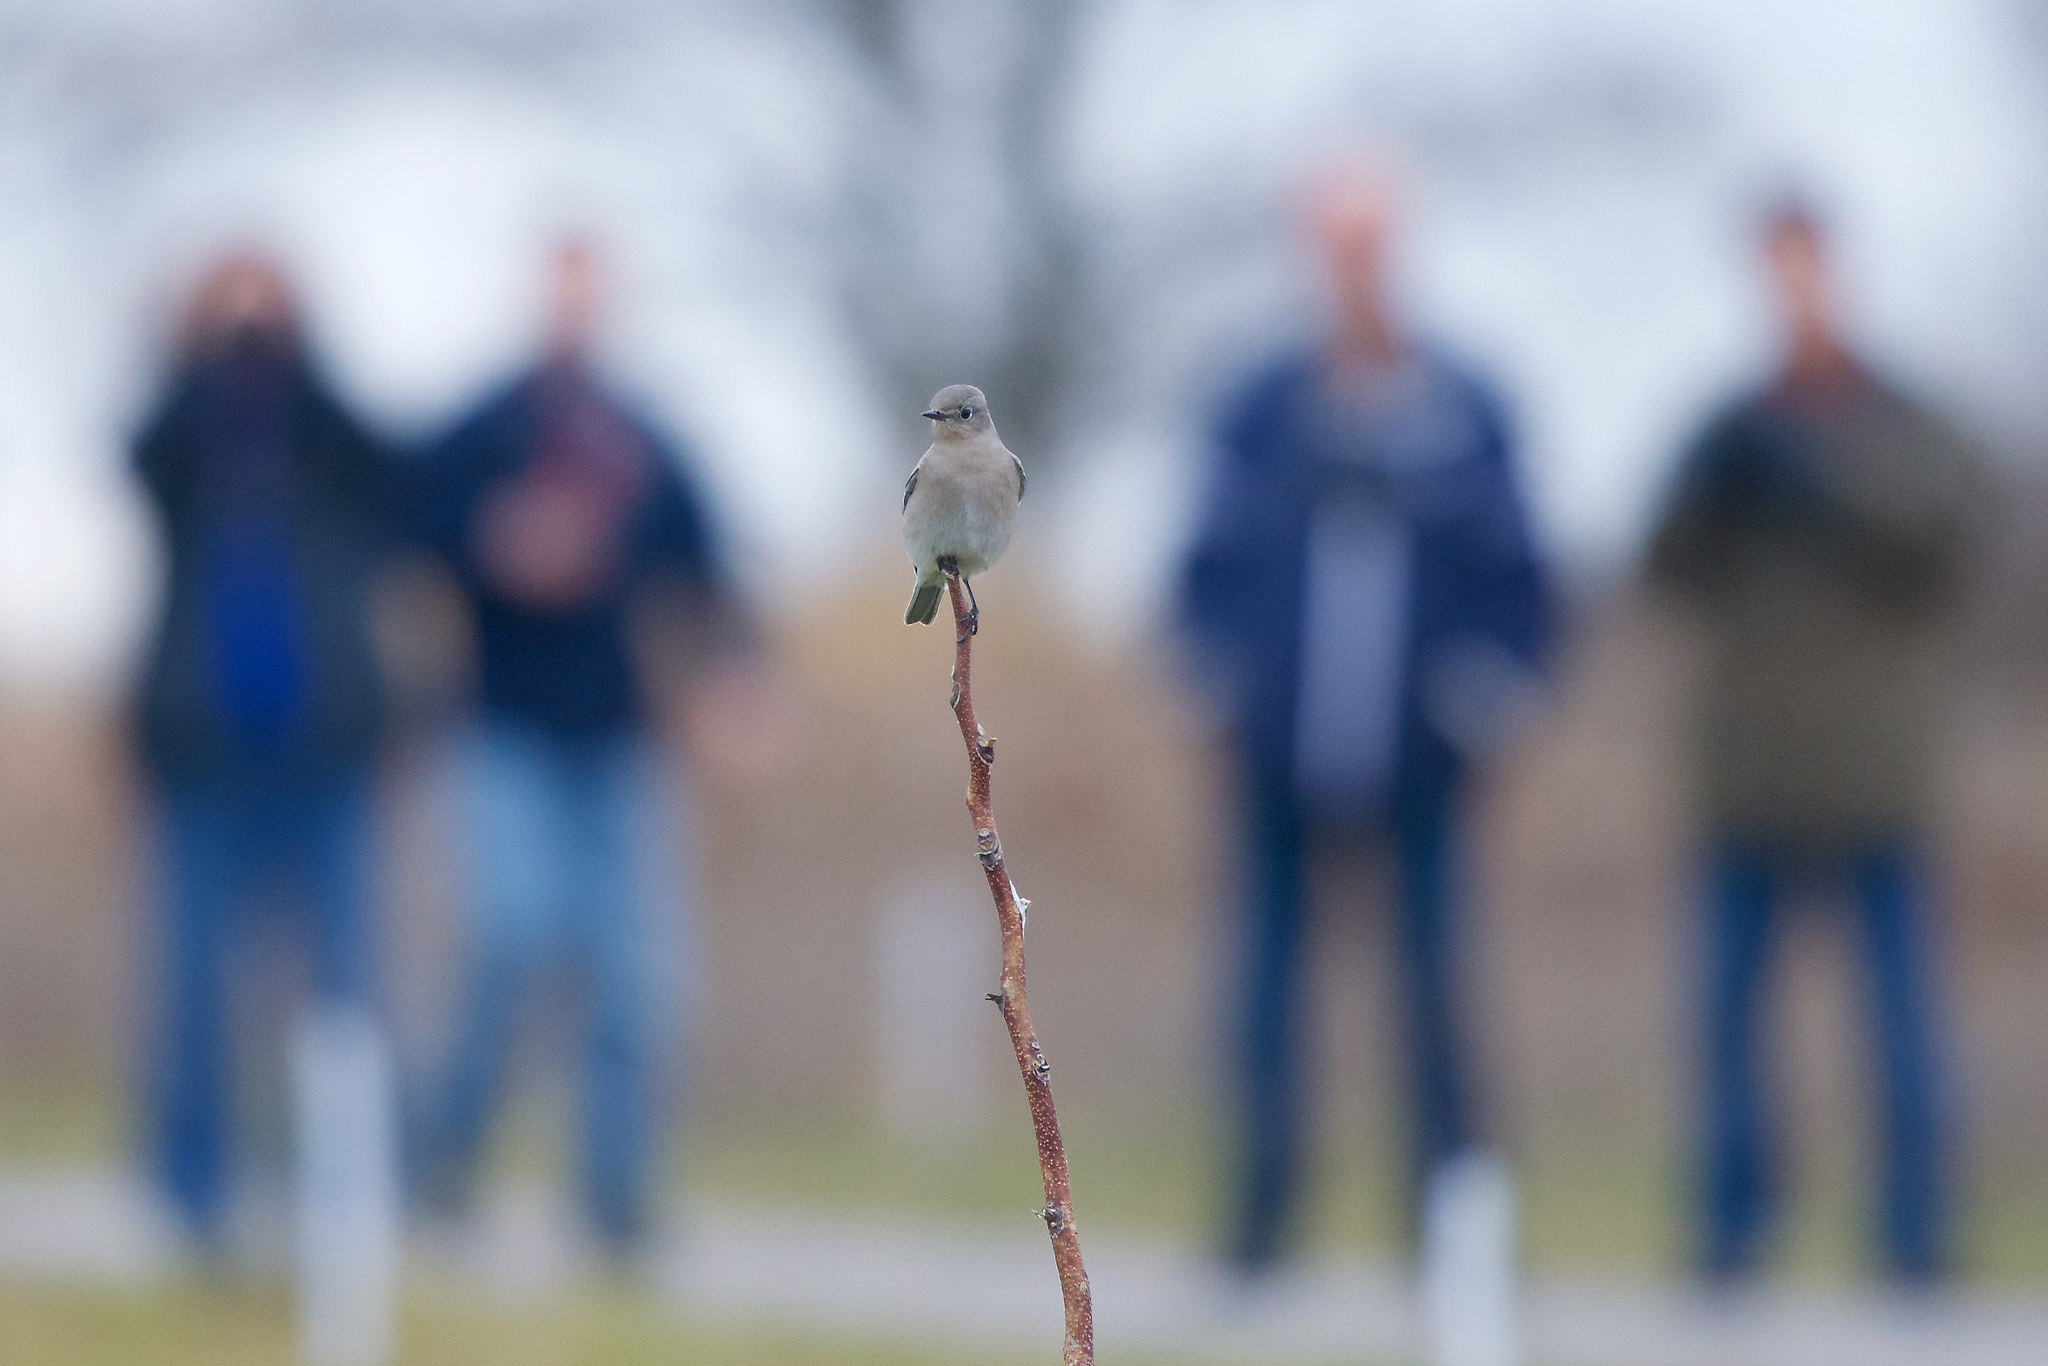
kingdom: Animalia
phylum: Chordata
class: Aves
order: Passeriformes
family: Turdidae
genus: Sialia
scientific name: Sialia currucoides
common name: Mountain bluebird
